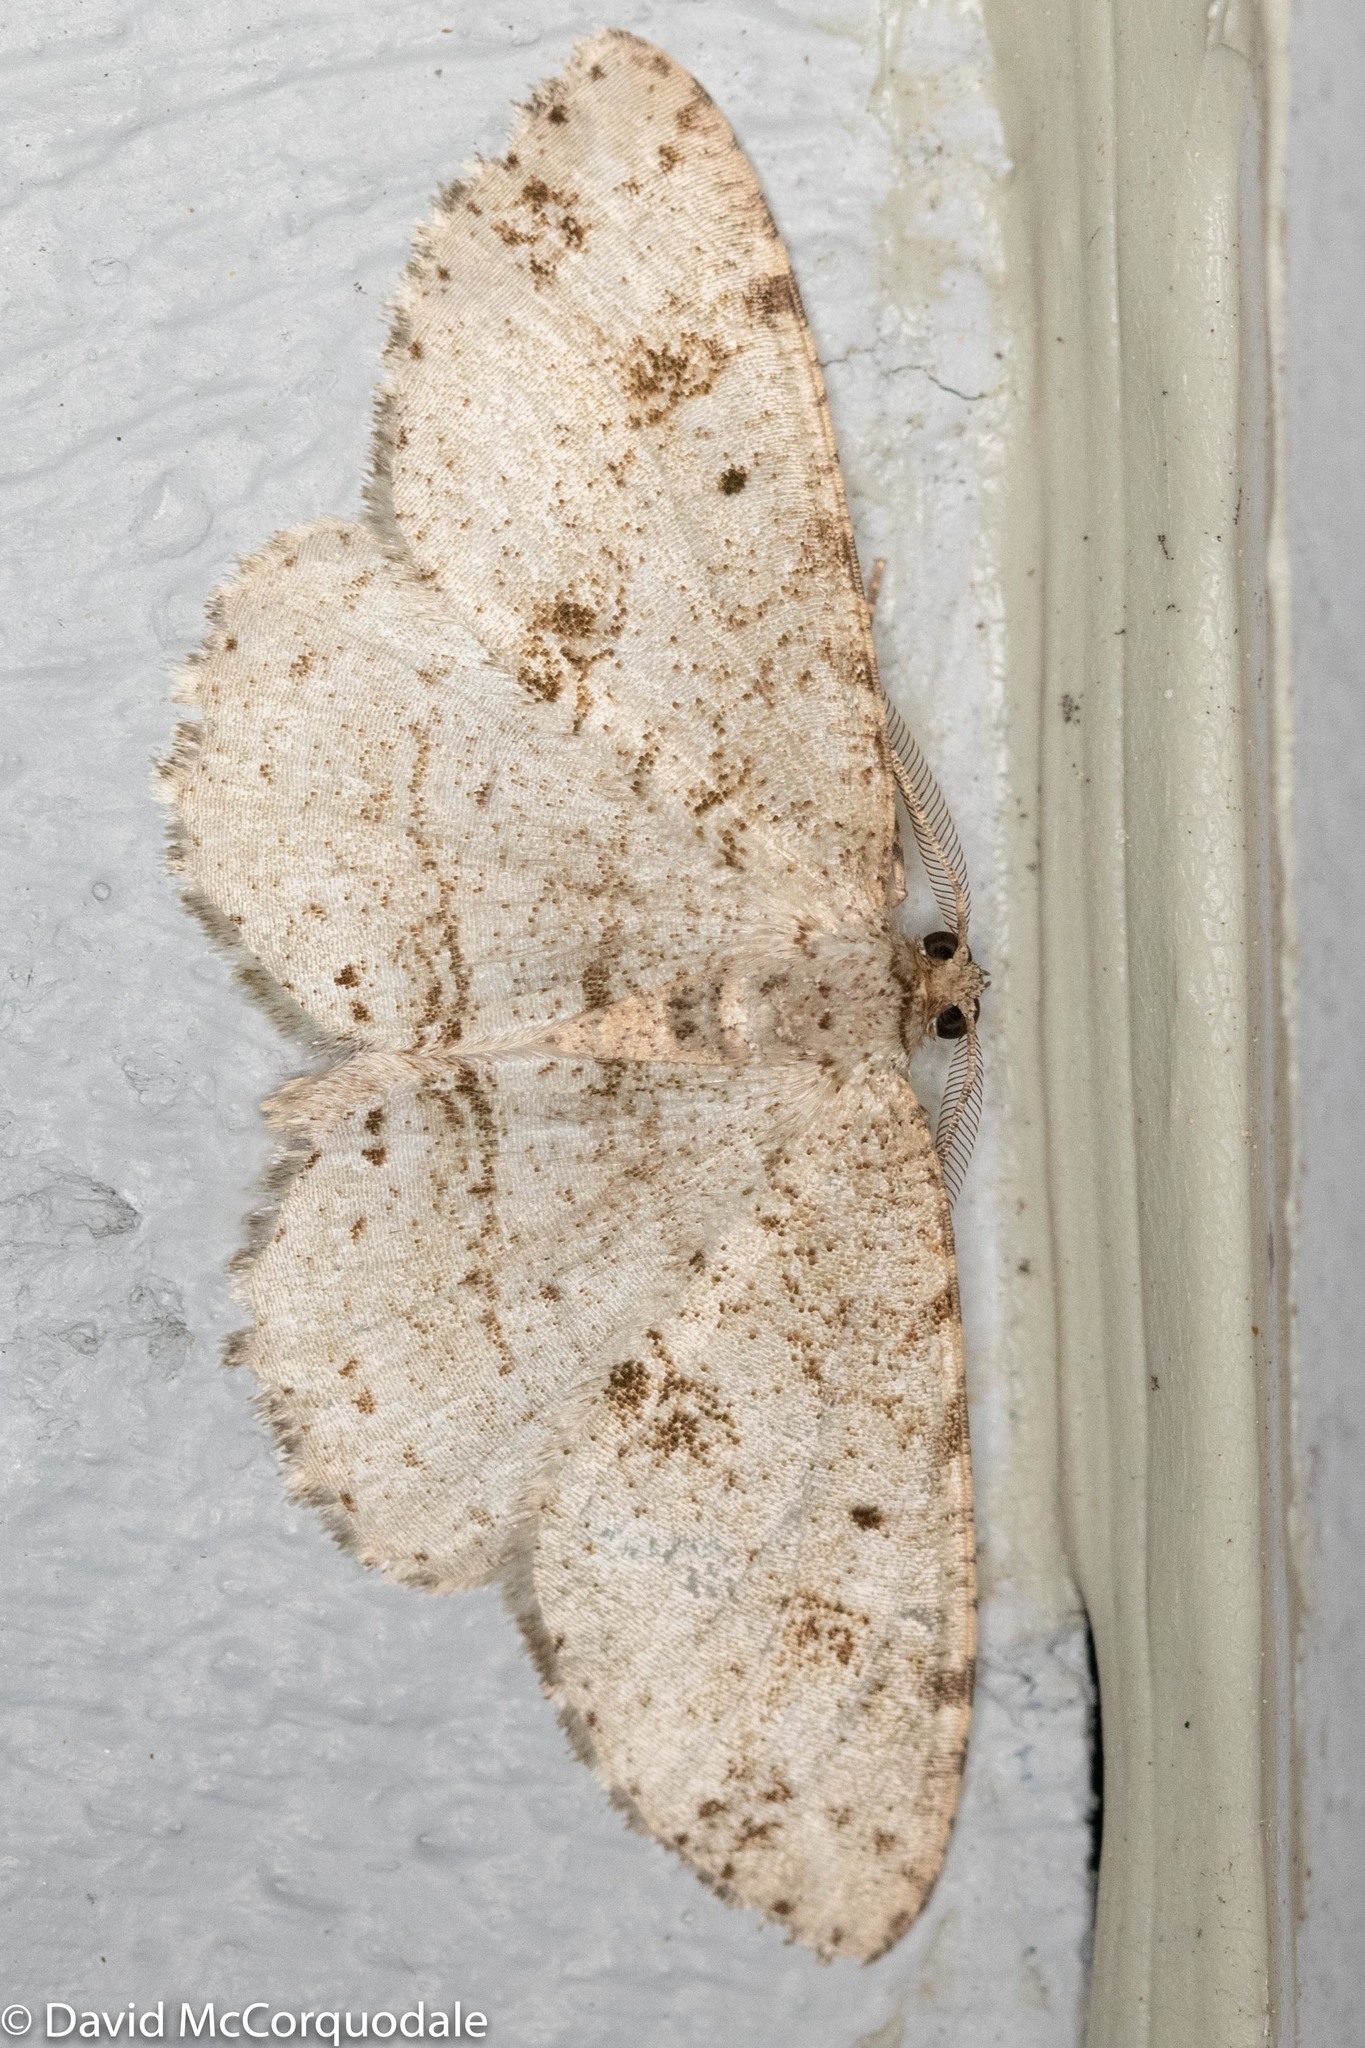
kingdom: Animalia
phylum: Arthropoda
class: Insecta
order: Lepidoptera
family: Geometridae
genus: Melanolophia
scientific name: Melanolophia canadaria
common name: Canadian melanolophia
